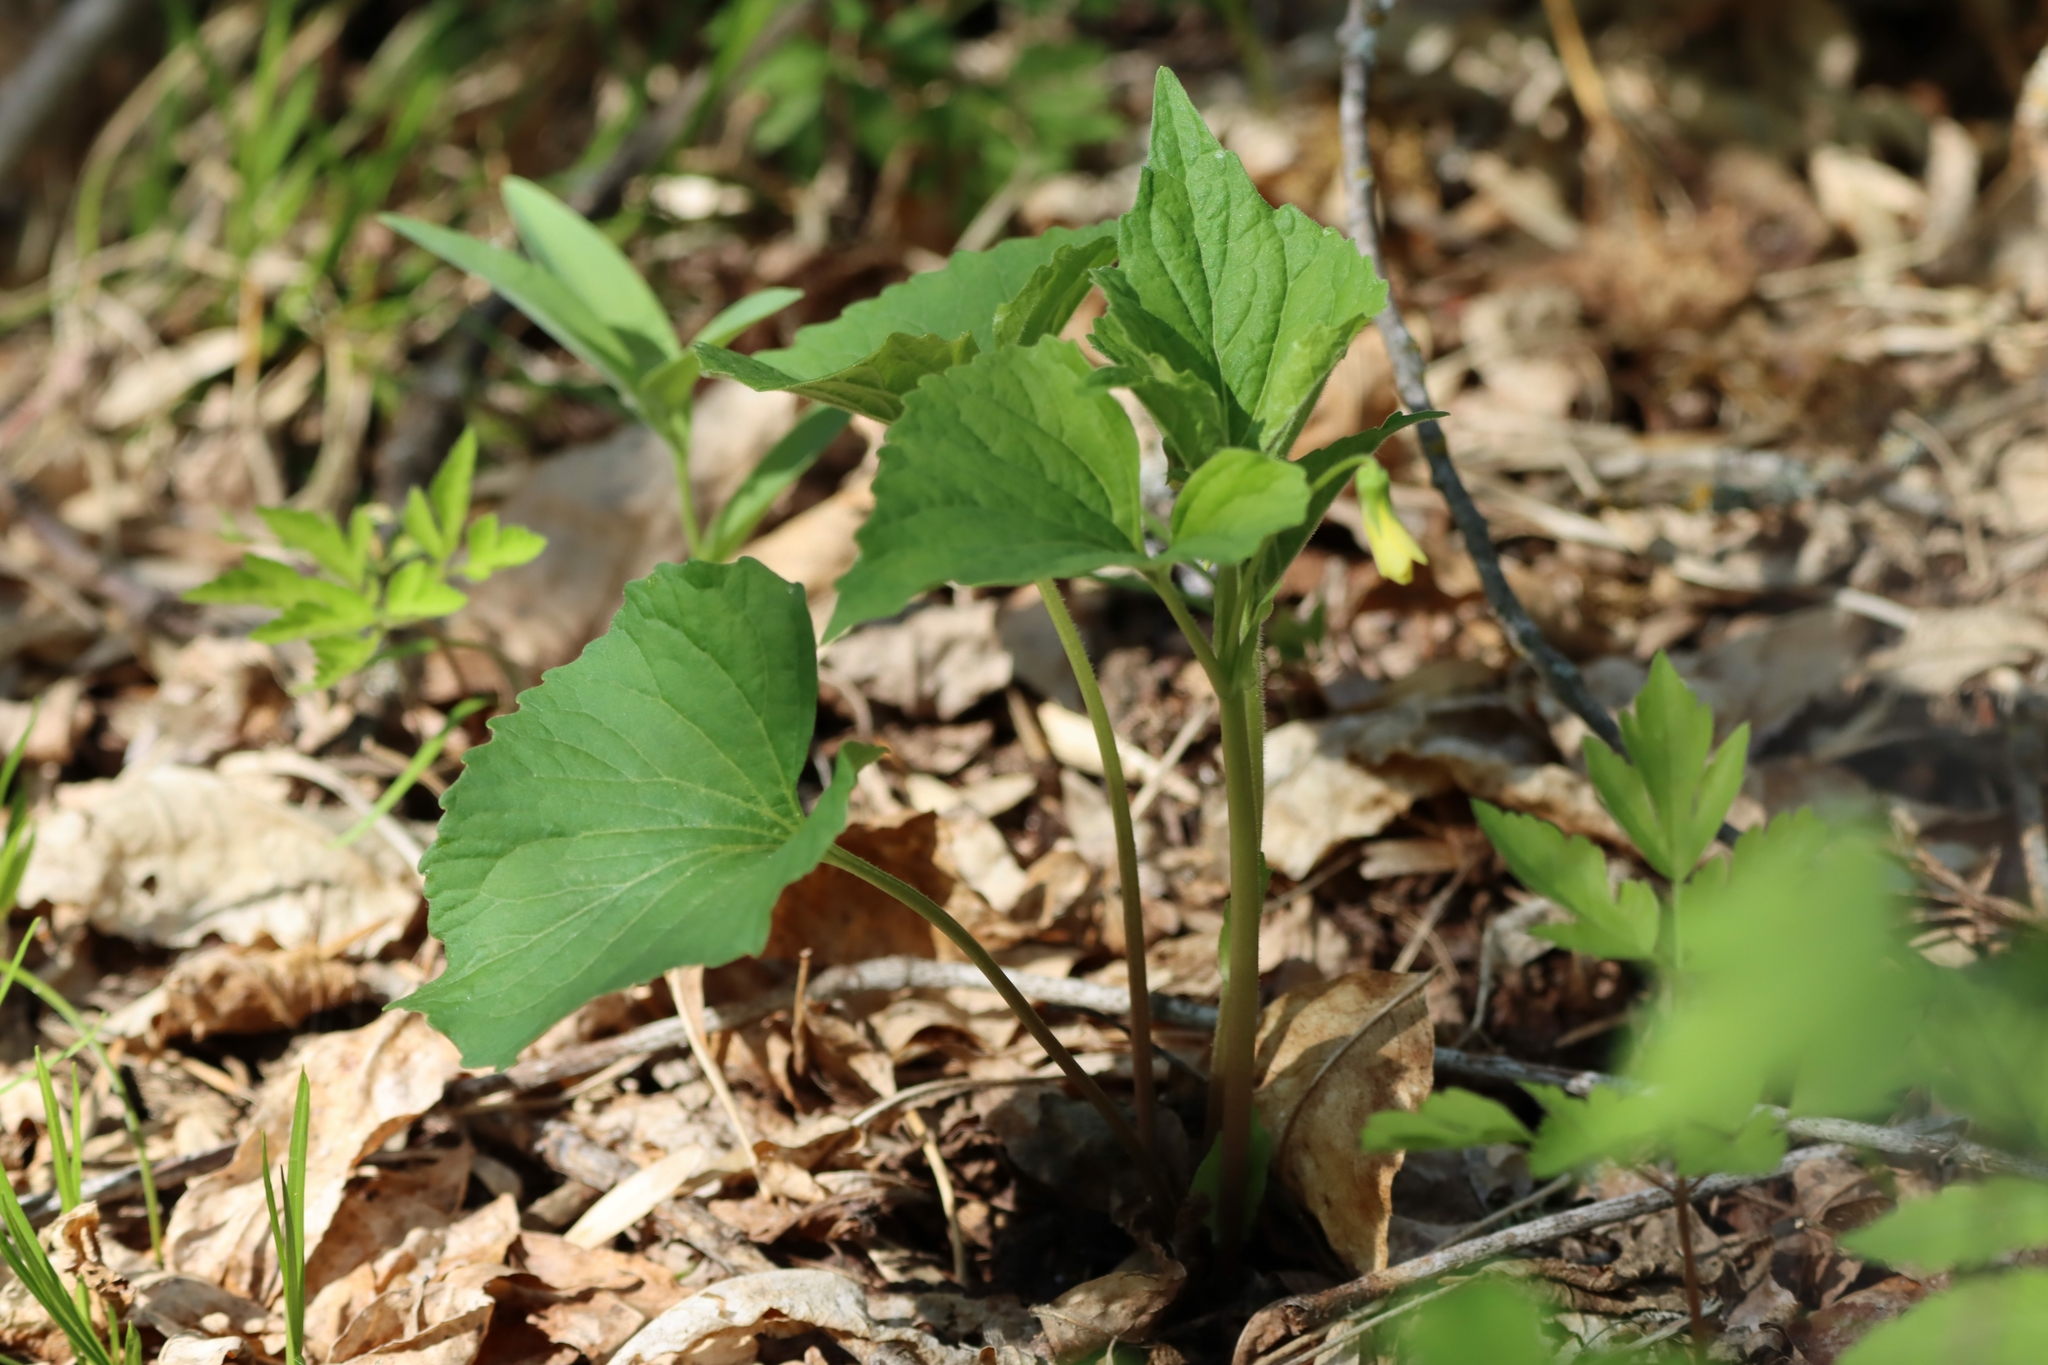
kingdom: Plantae
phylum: Tracheophyta
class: Magnoliopsida
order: Malpighiales
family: Violaceae
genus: Viola
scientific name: Viola eriocarpa
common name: Smooth yellow violet
